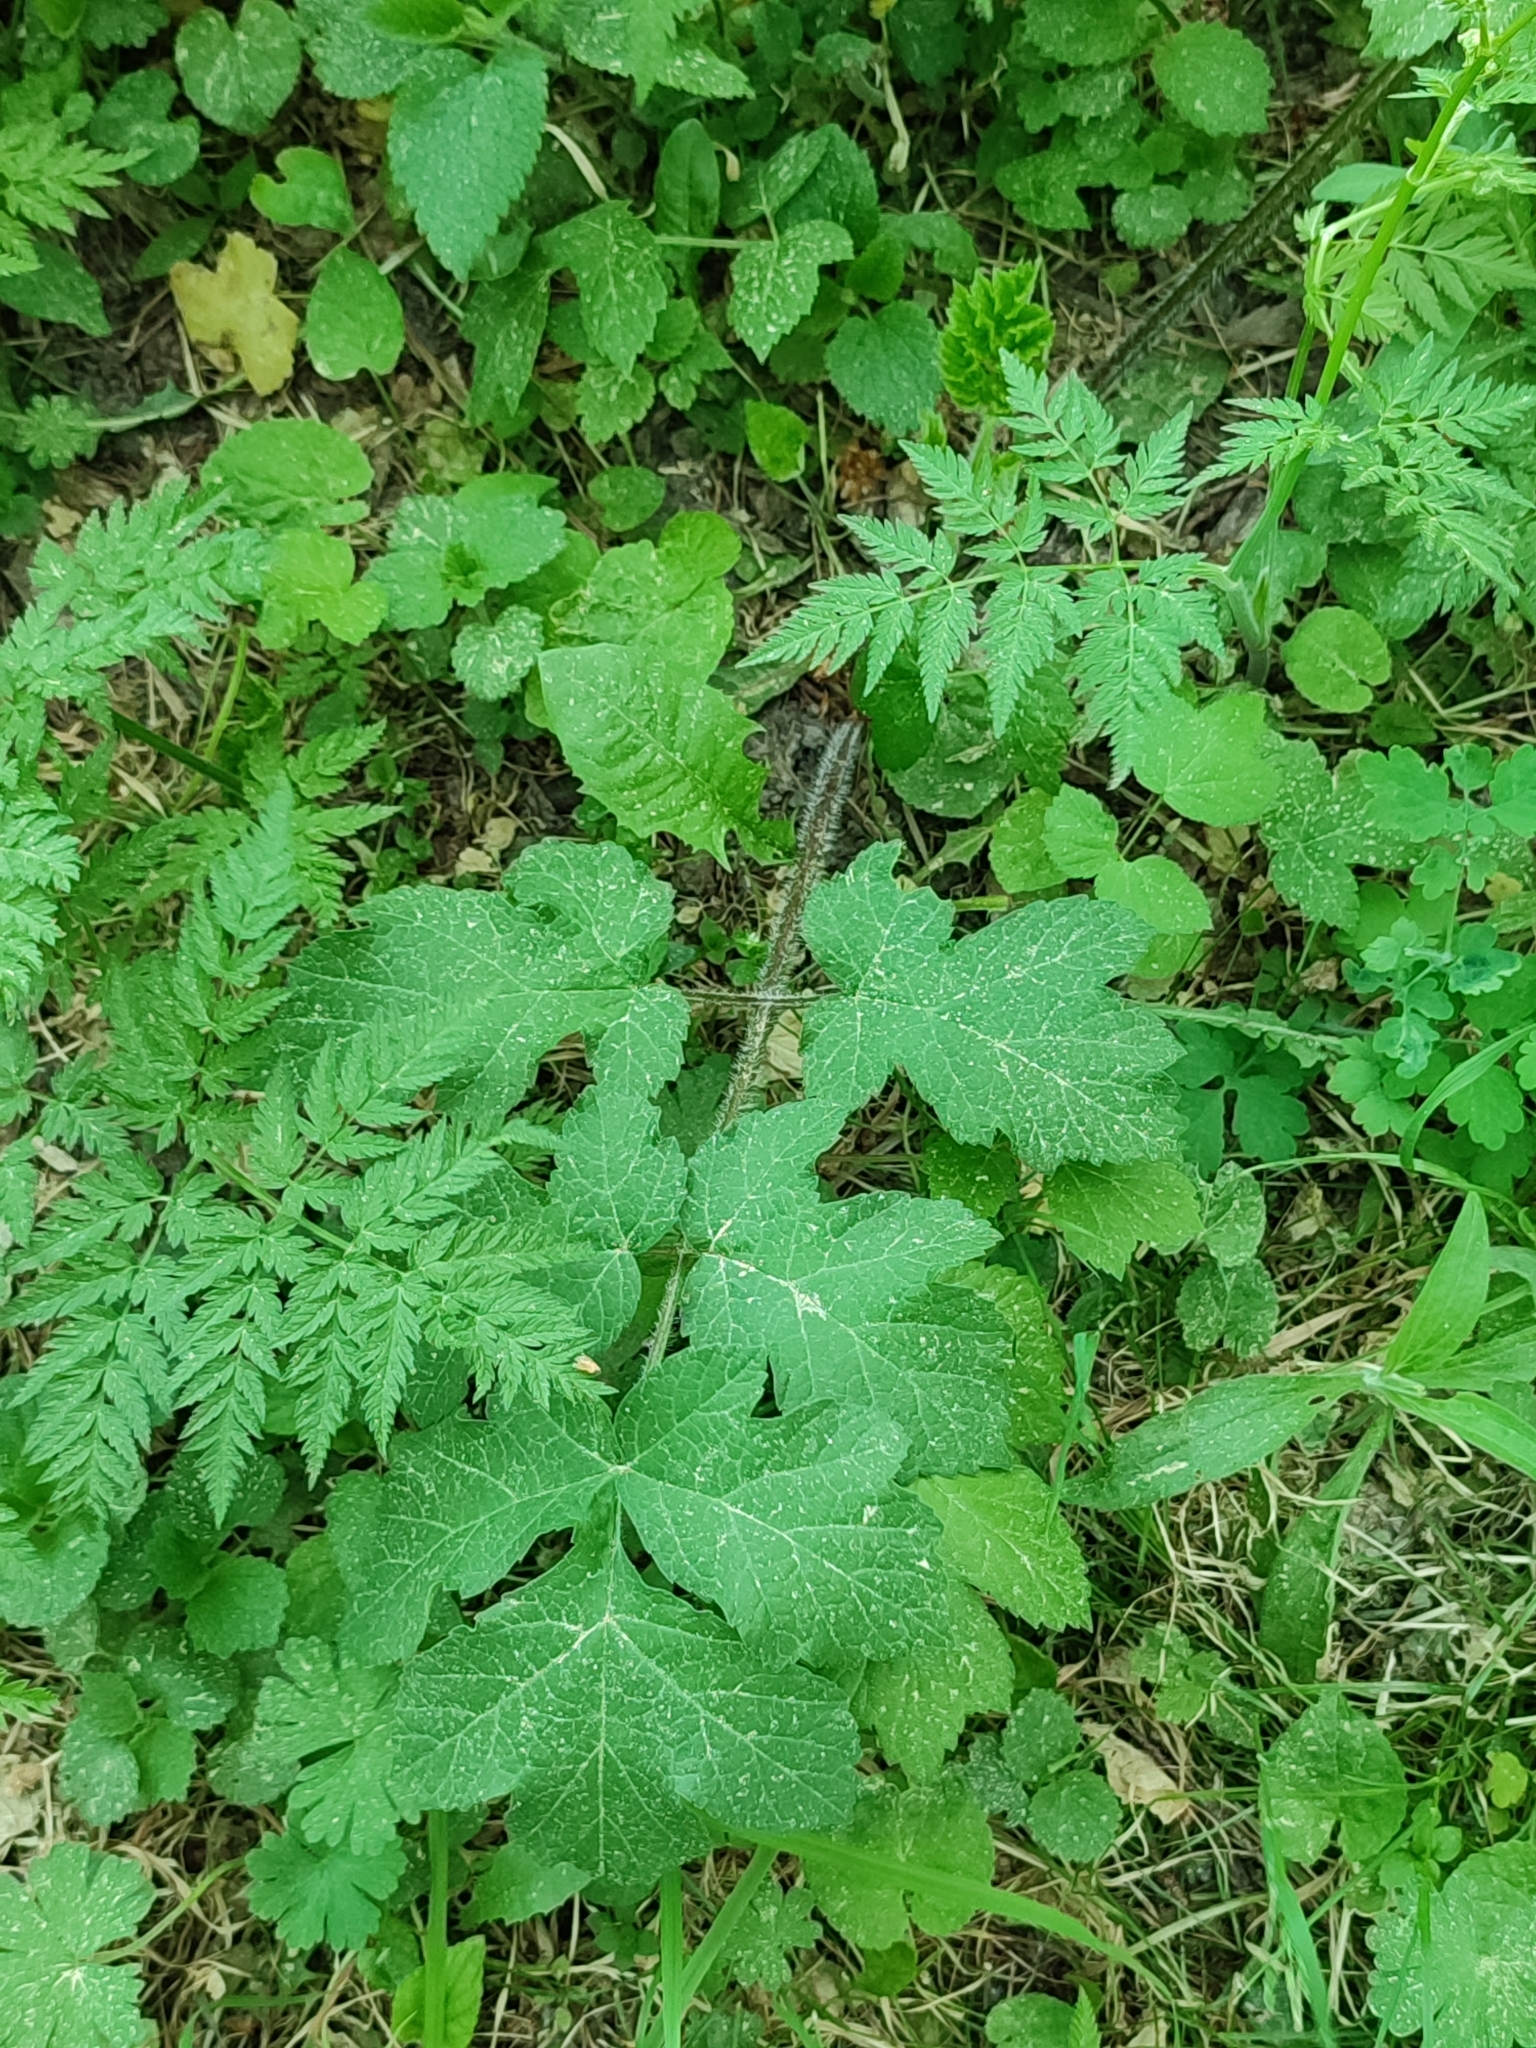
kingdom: Plantae
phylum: Tracheophyta
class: Magnoliopsida
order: Apiales
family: Apiaceae
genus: Heracleum
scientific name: Heracleum sphondylium
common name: Hogweed
